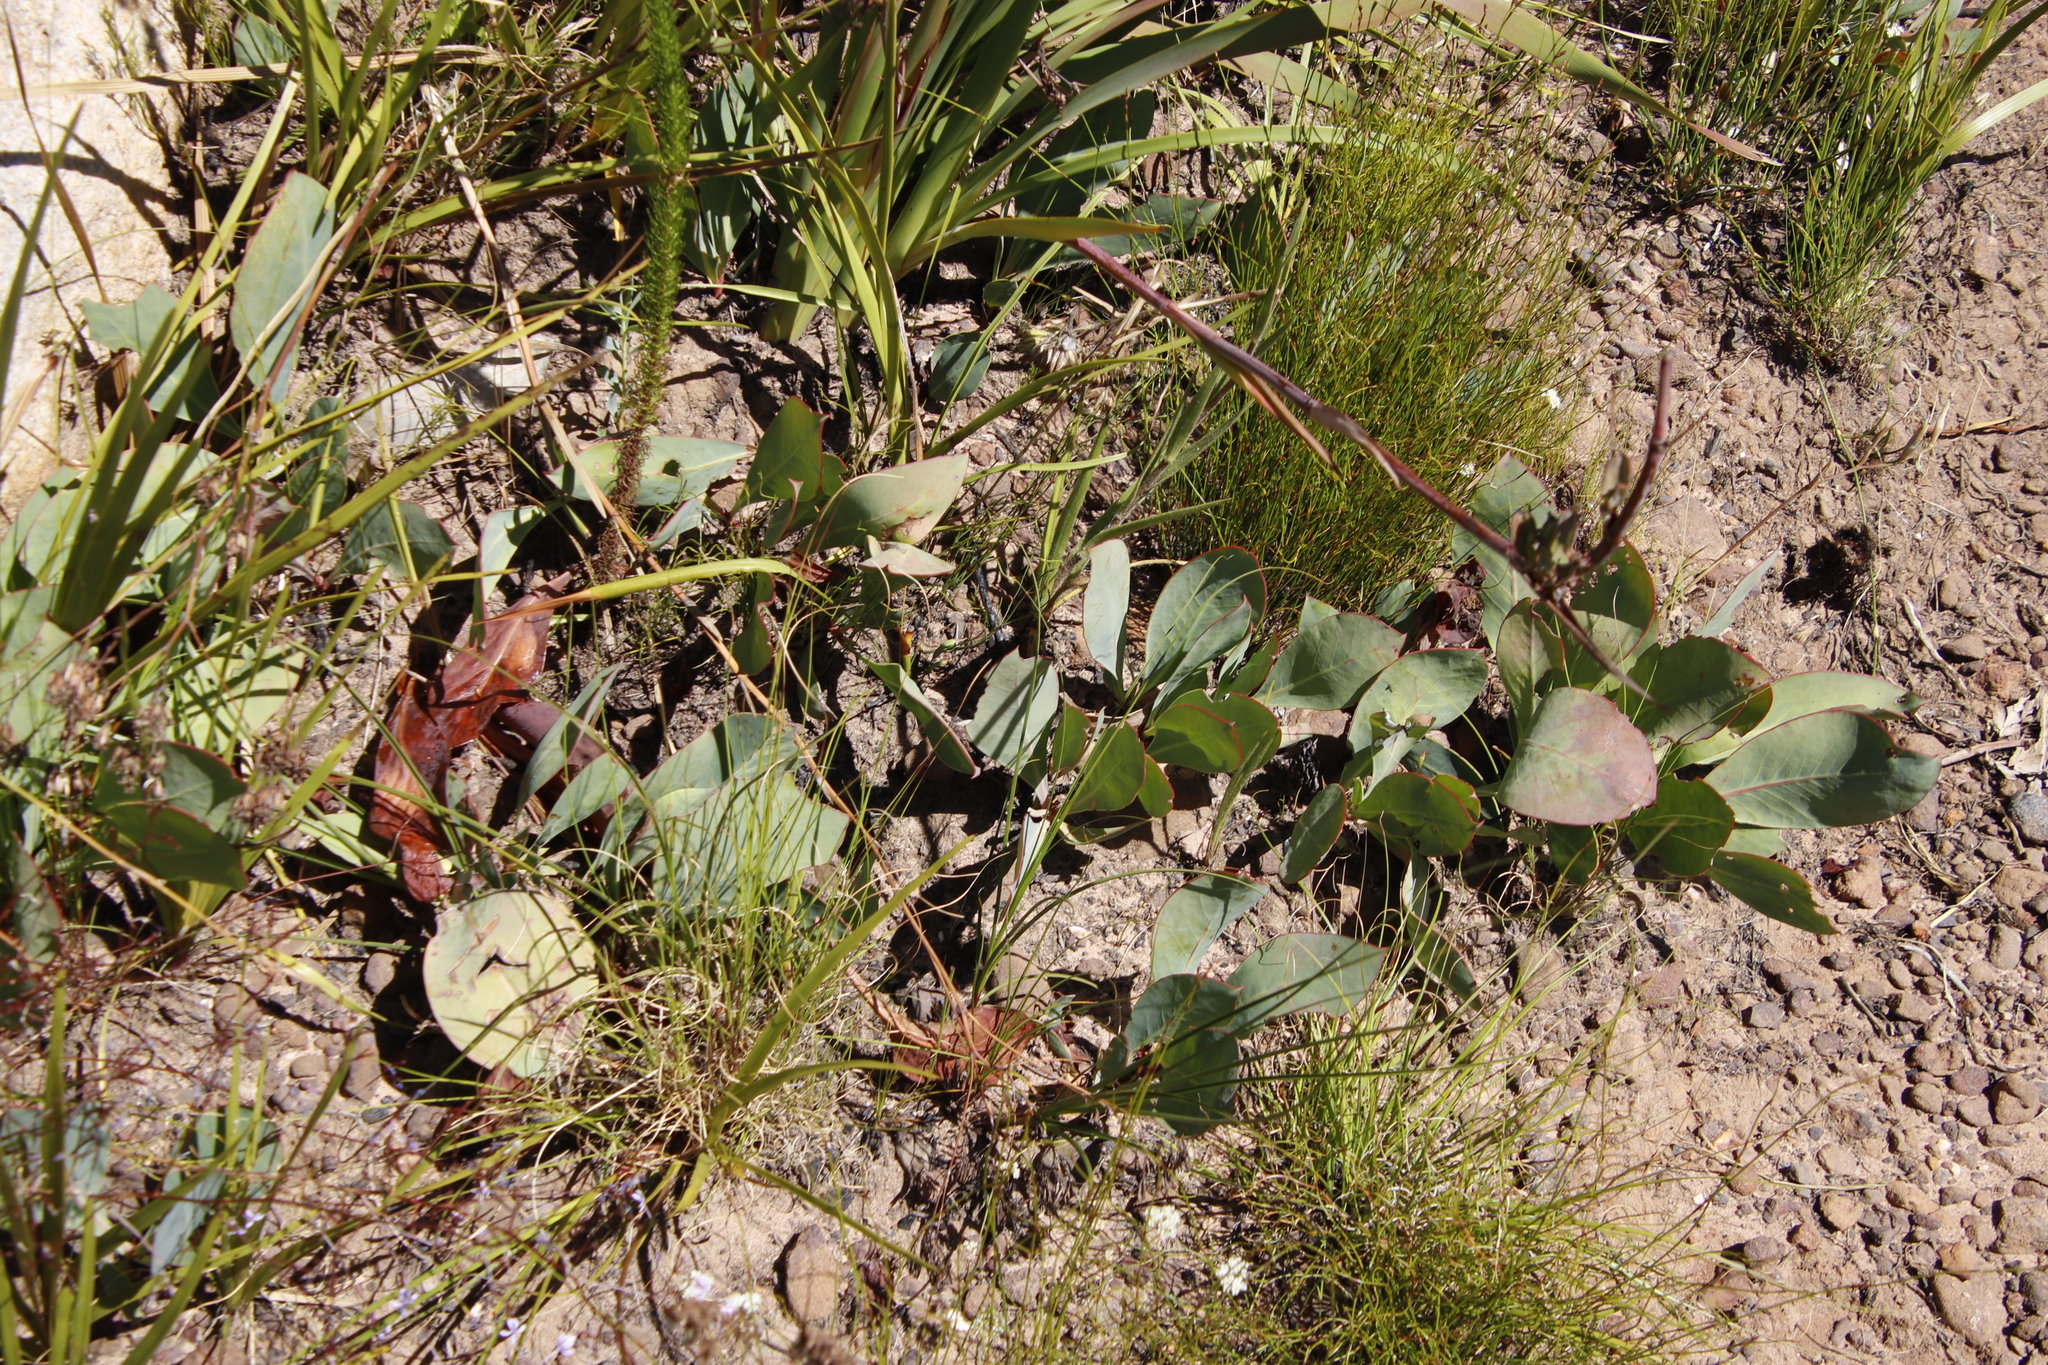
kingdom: Plantae
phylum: Tracheophyta
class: Magnoliopsida
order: Proteales
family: Proteaceae
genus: Protea
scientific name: Protea acaulos
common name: Common ground sugarbush
